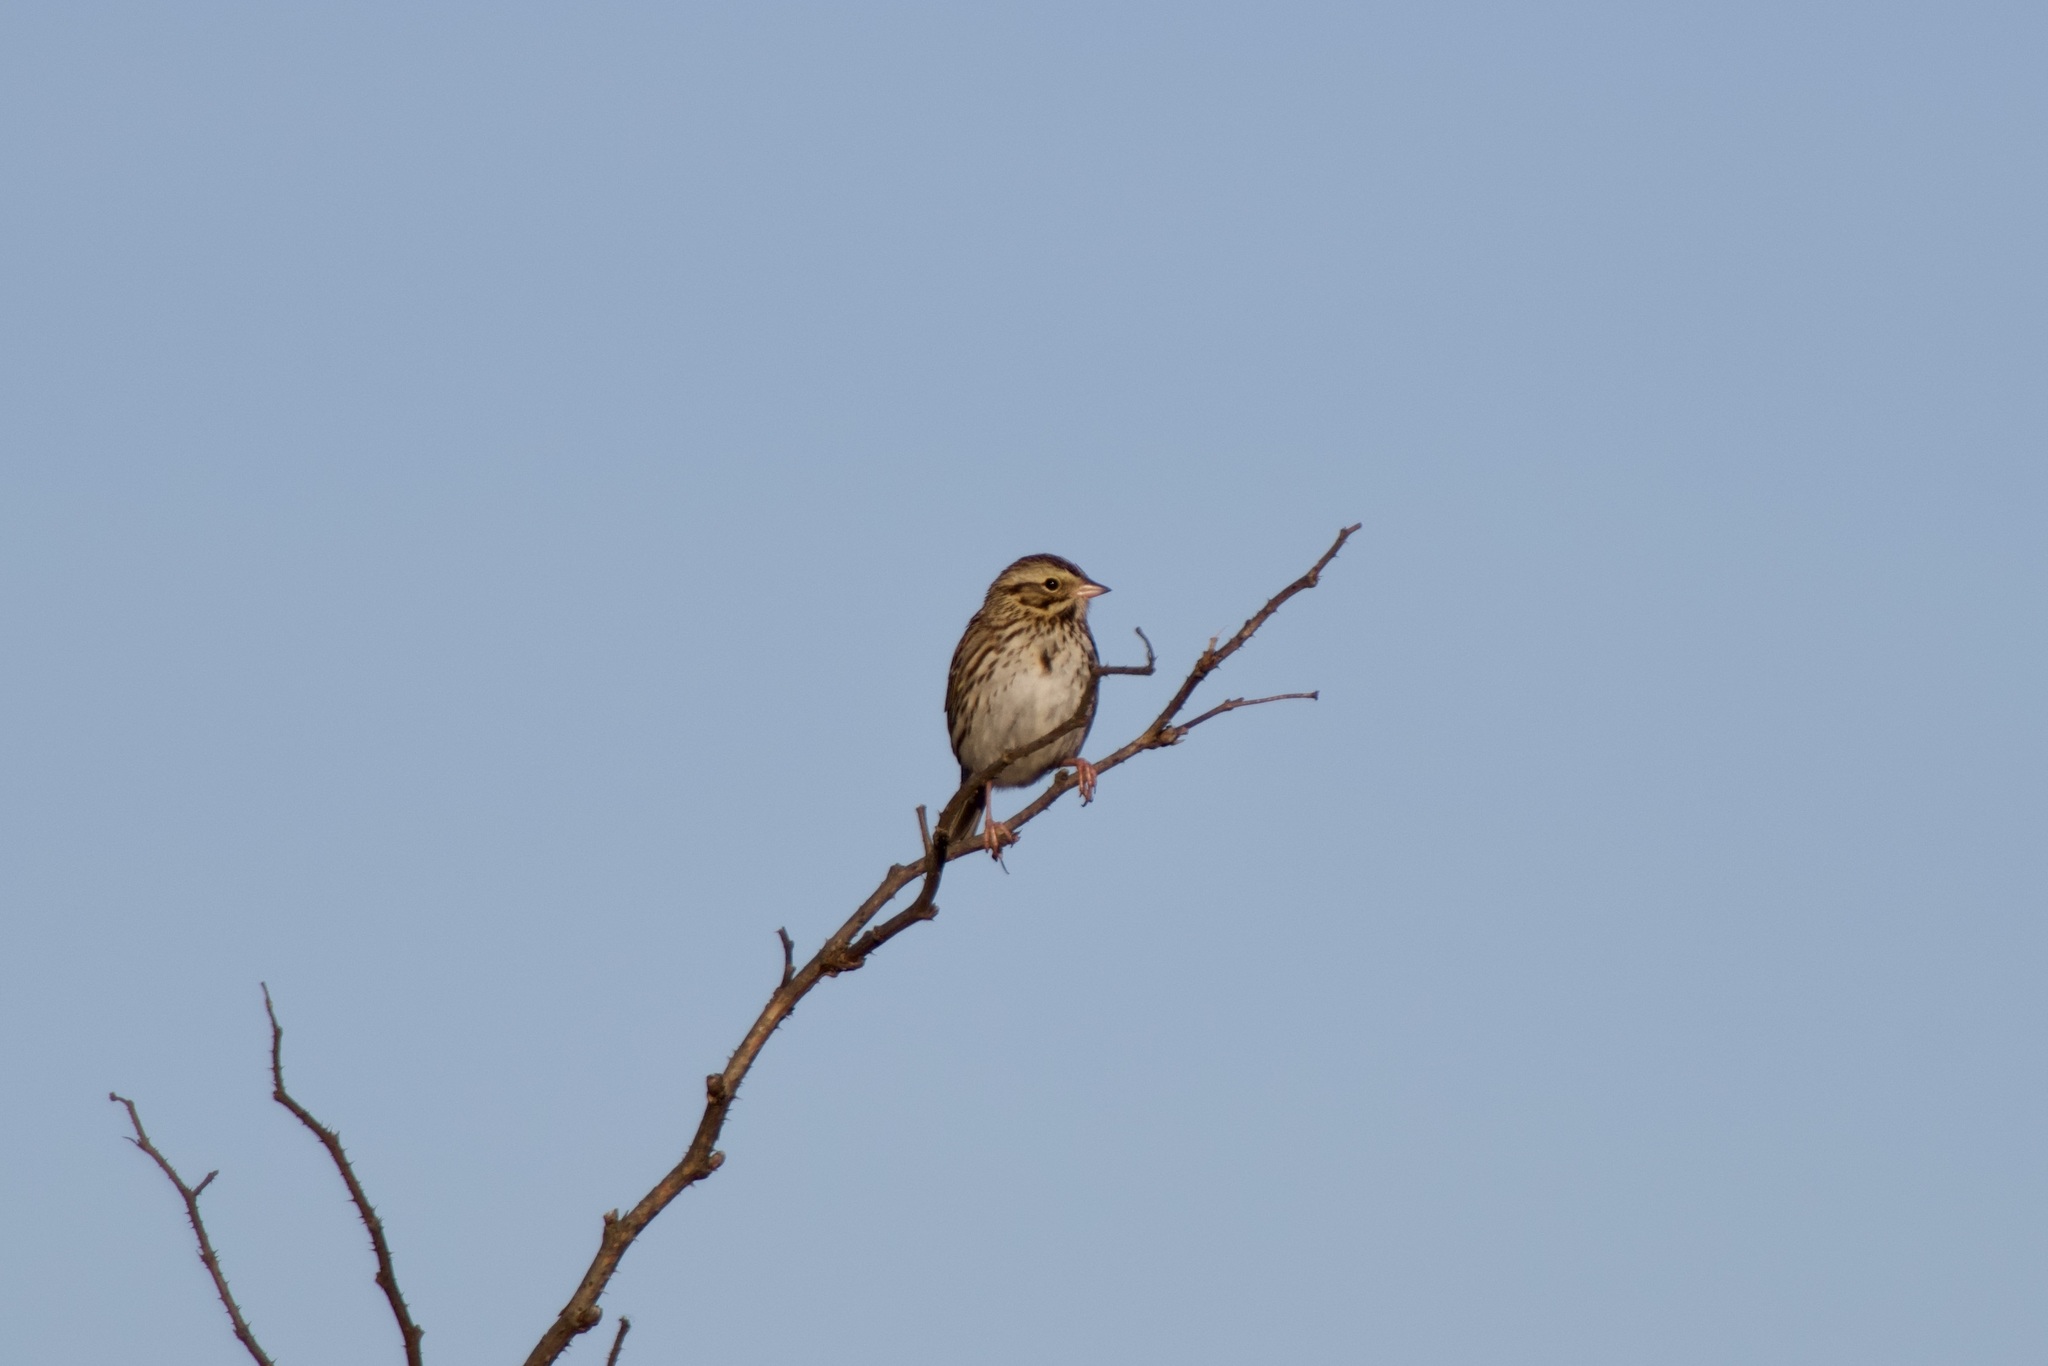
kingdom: Animalia
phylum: Chordata
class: Aves
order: Passeriformes
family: Passerellidae
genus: Passerculus
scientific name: Passerculus sandwichensis
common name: Savannah sparrow
